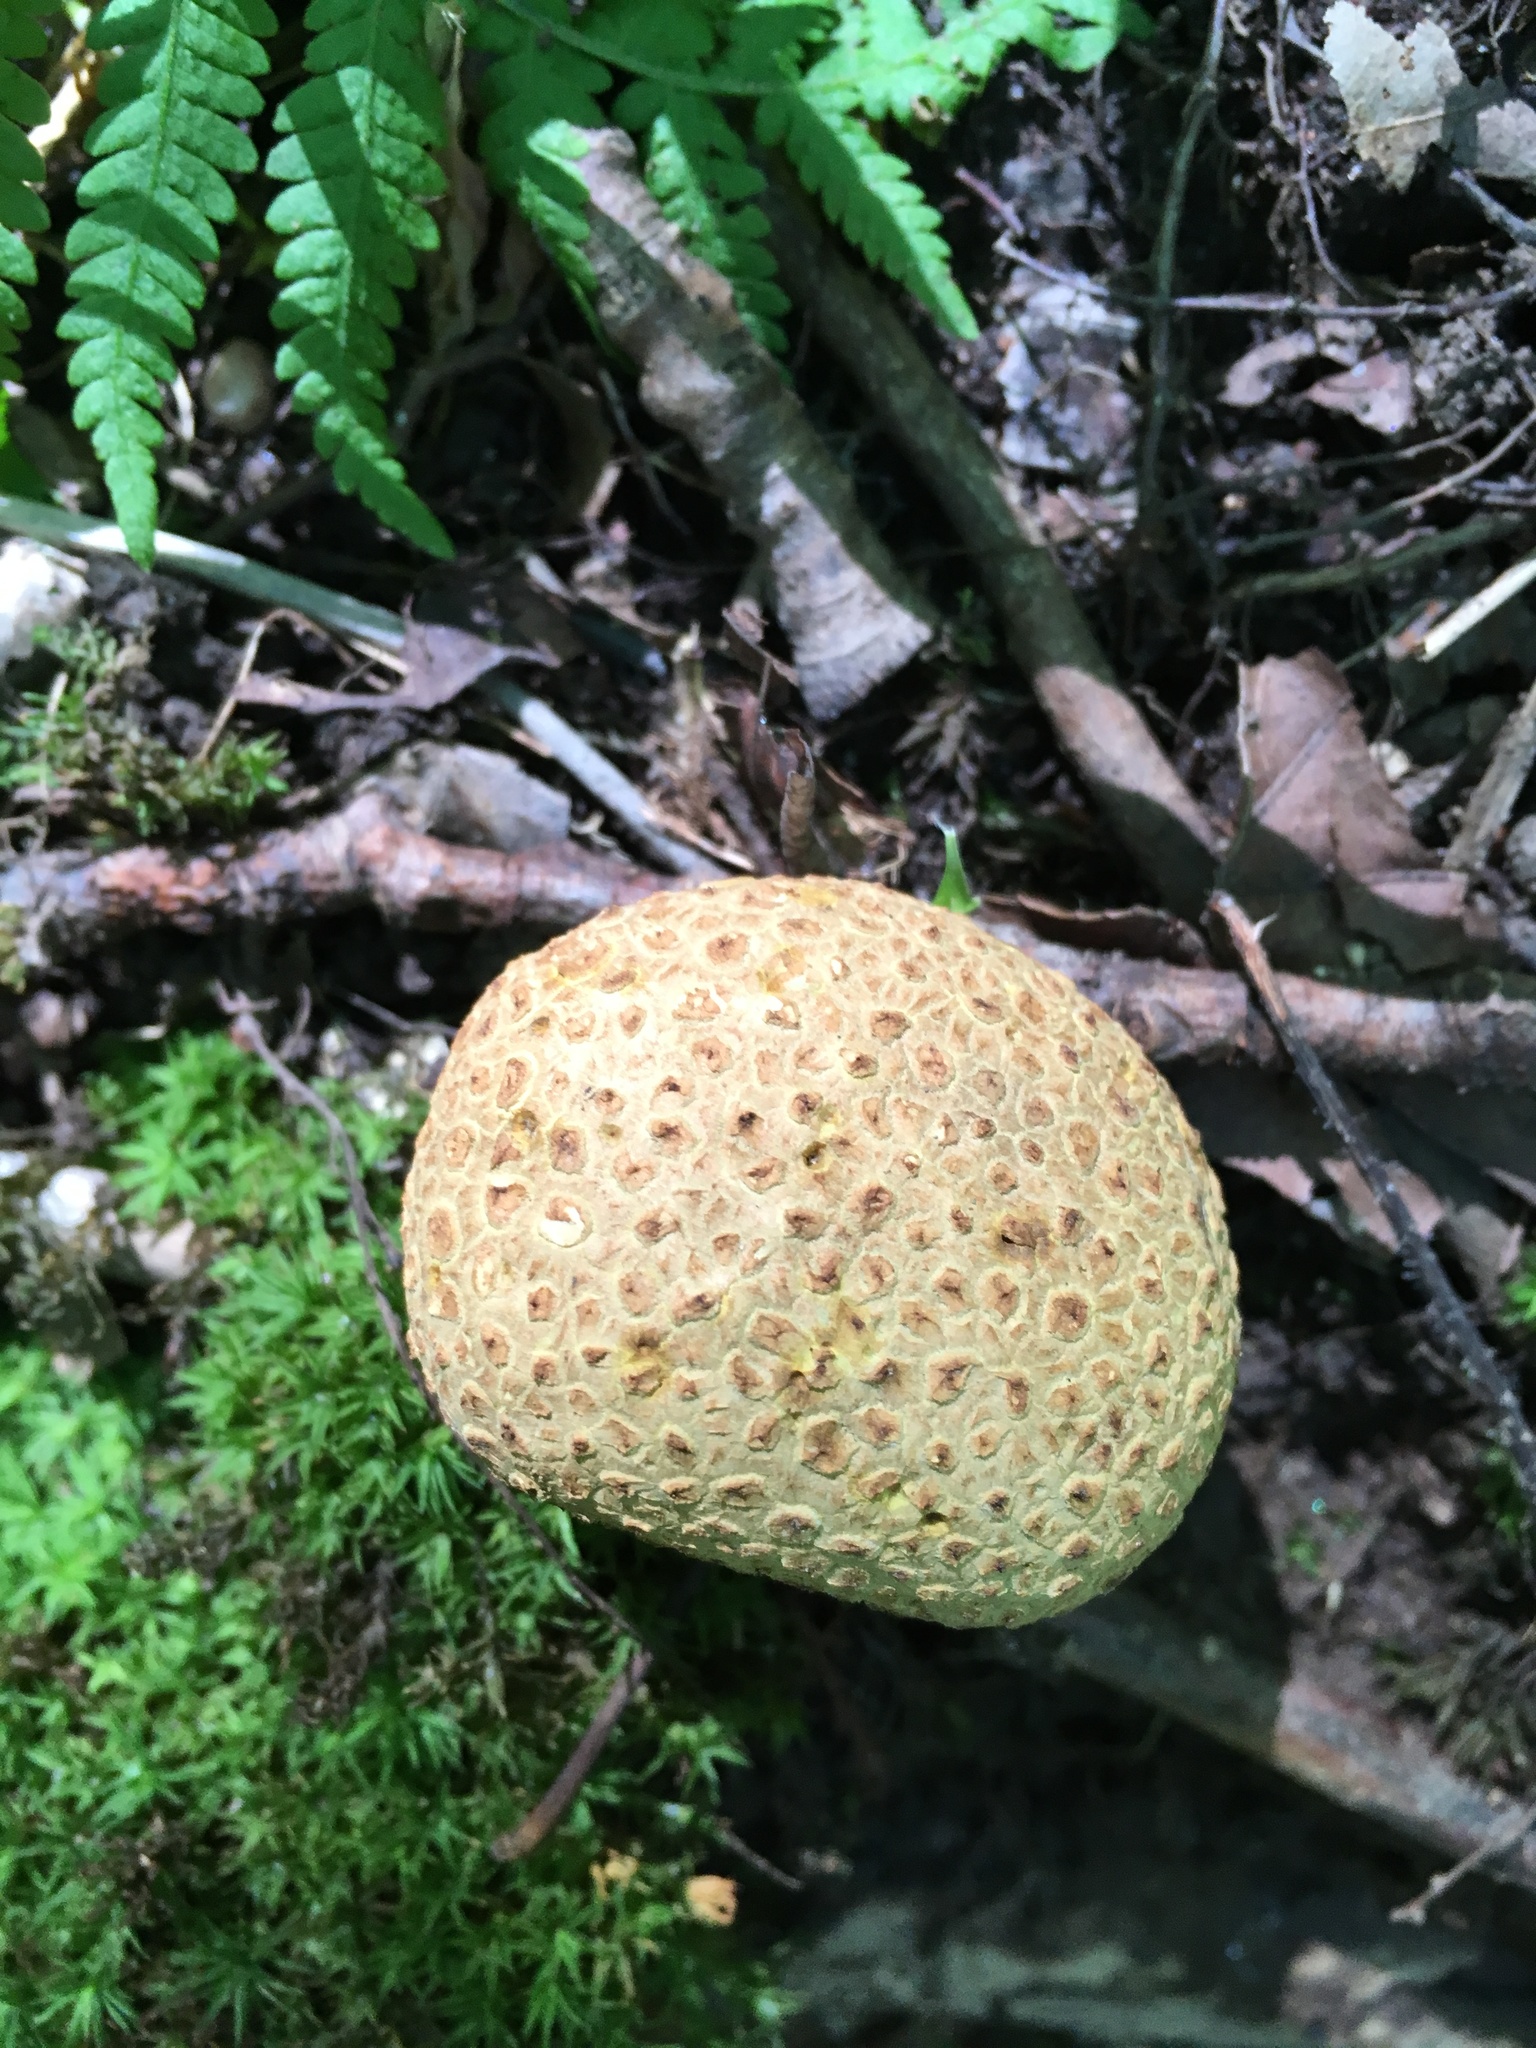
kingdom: Fungi
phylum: Basidiomycota
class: Agaricomycetes
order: Boletales
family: Sclerodermataceae
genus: Scleroderma
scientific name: Scleroderma citrinum
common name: Common earthball
